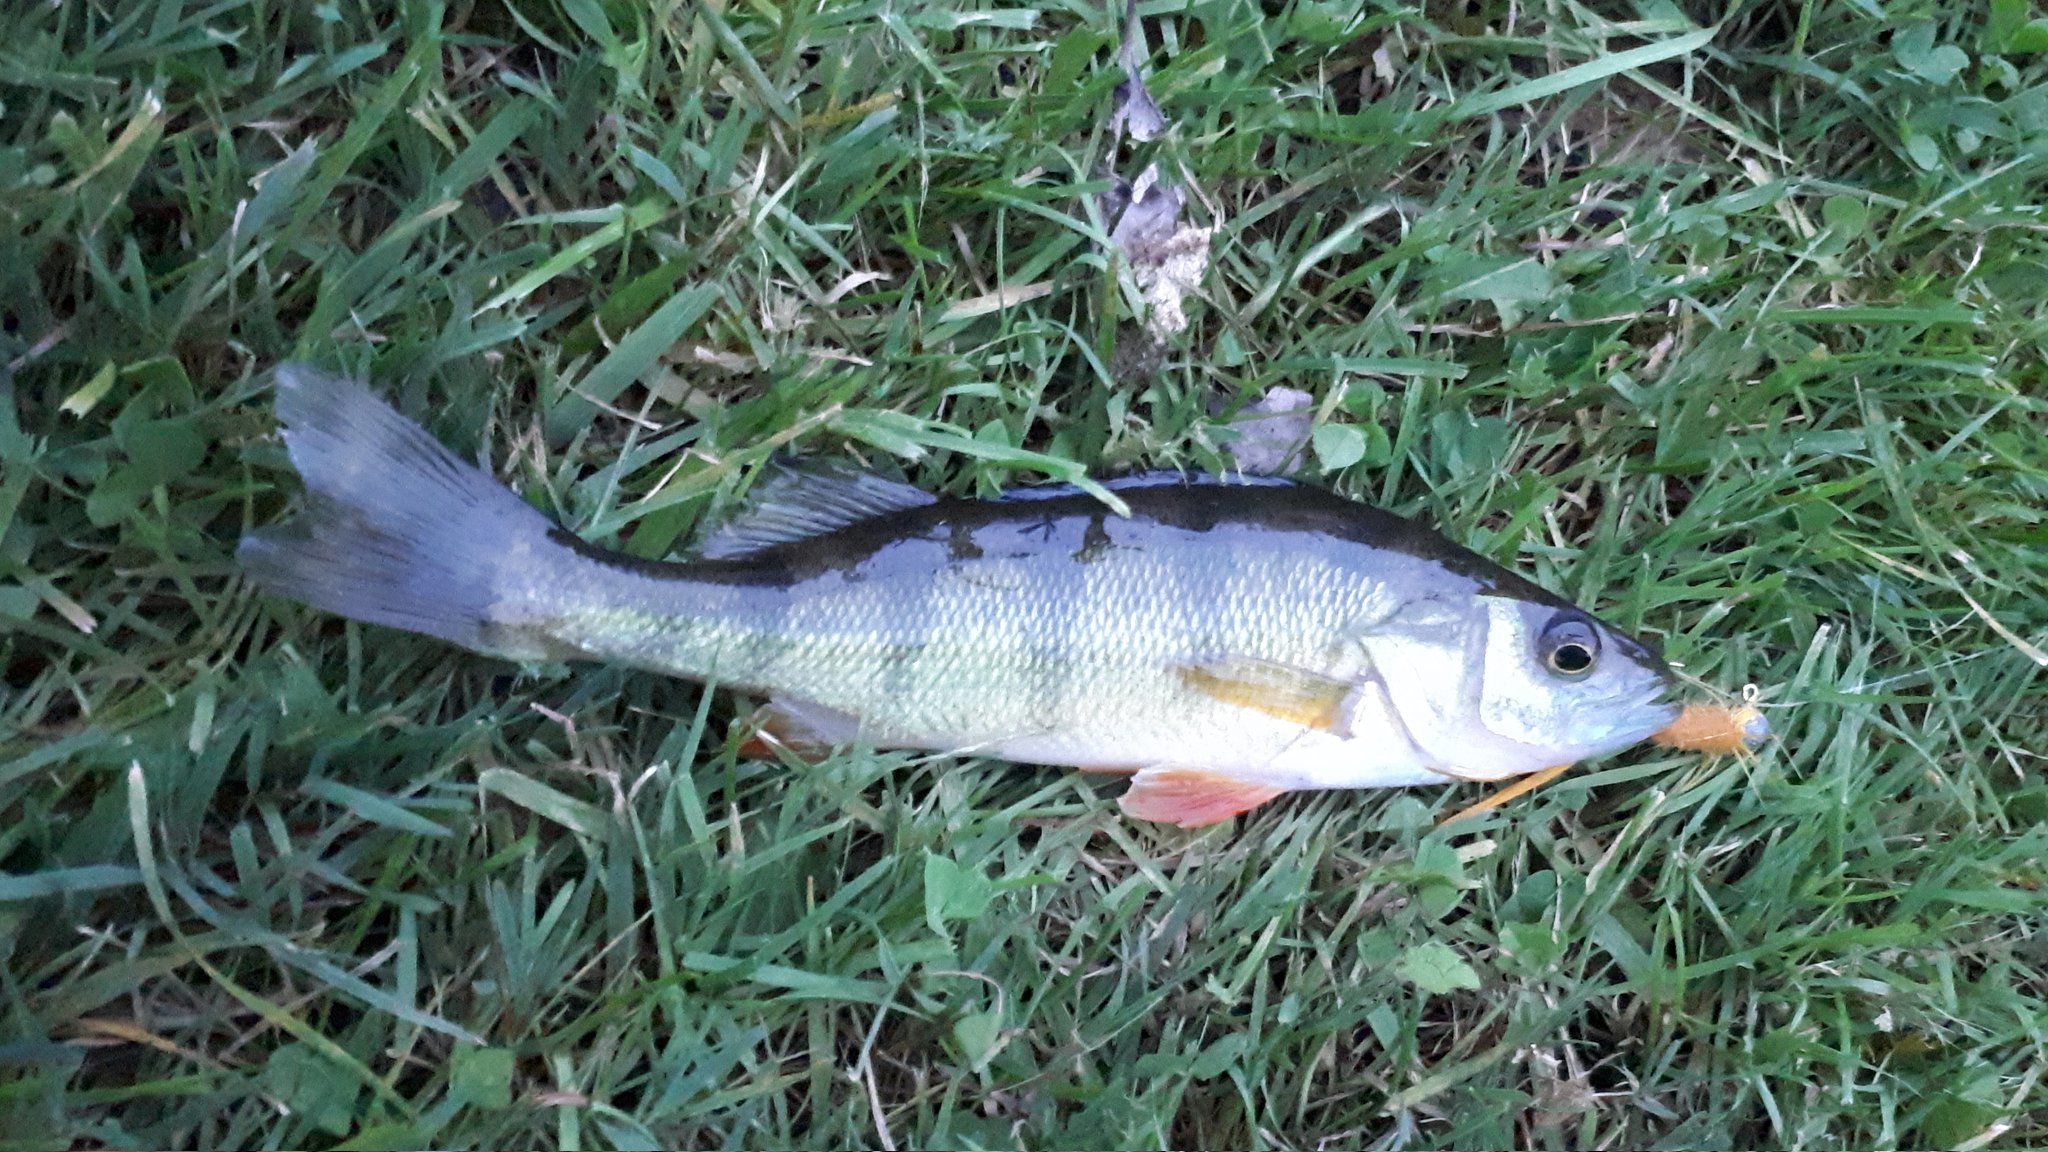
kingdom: Animalia
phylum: Chordata
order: Perciformes
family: Percidae
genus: Perca
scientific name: Perca flavescens
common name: Yellow perch
